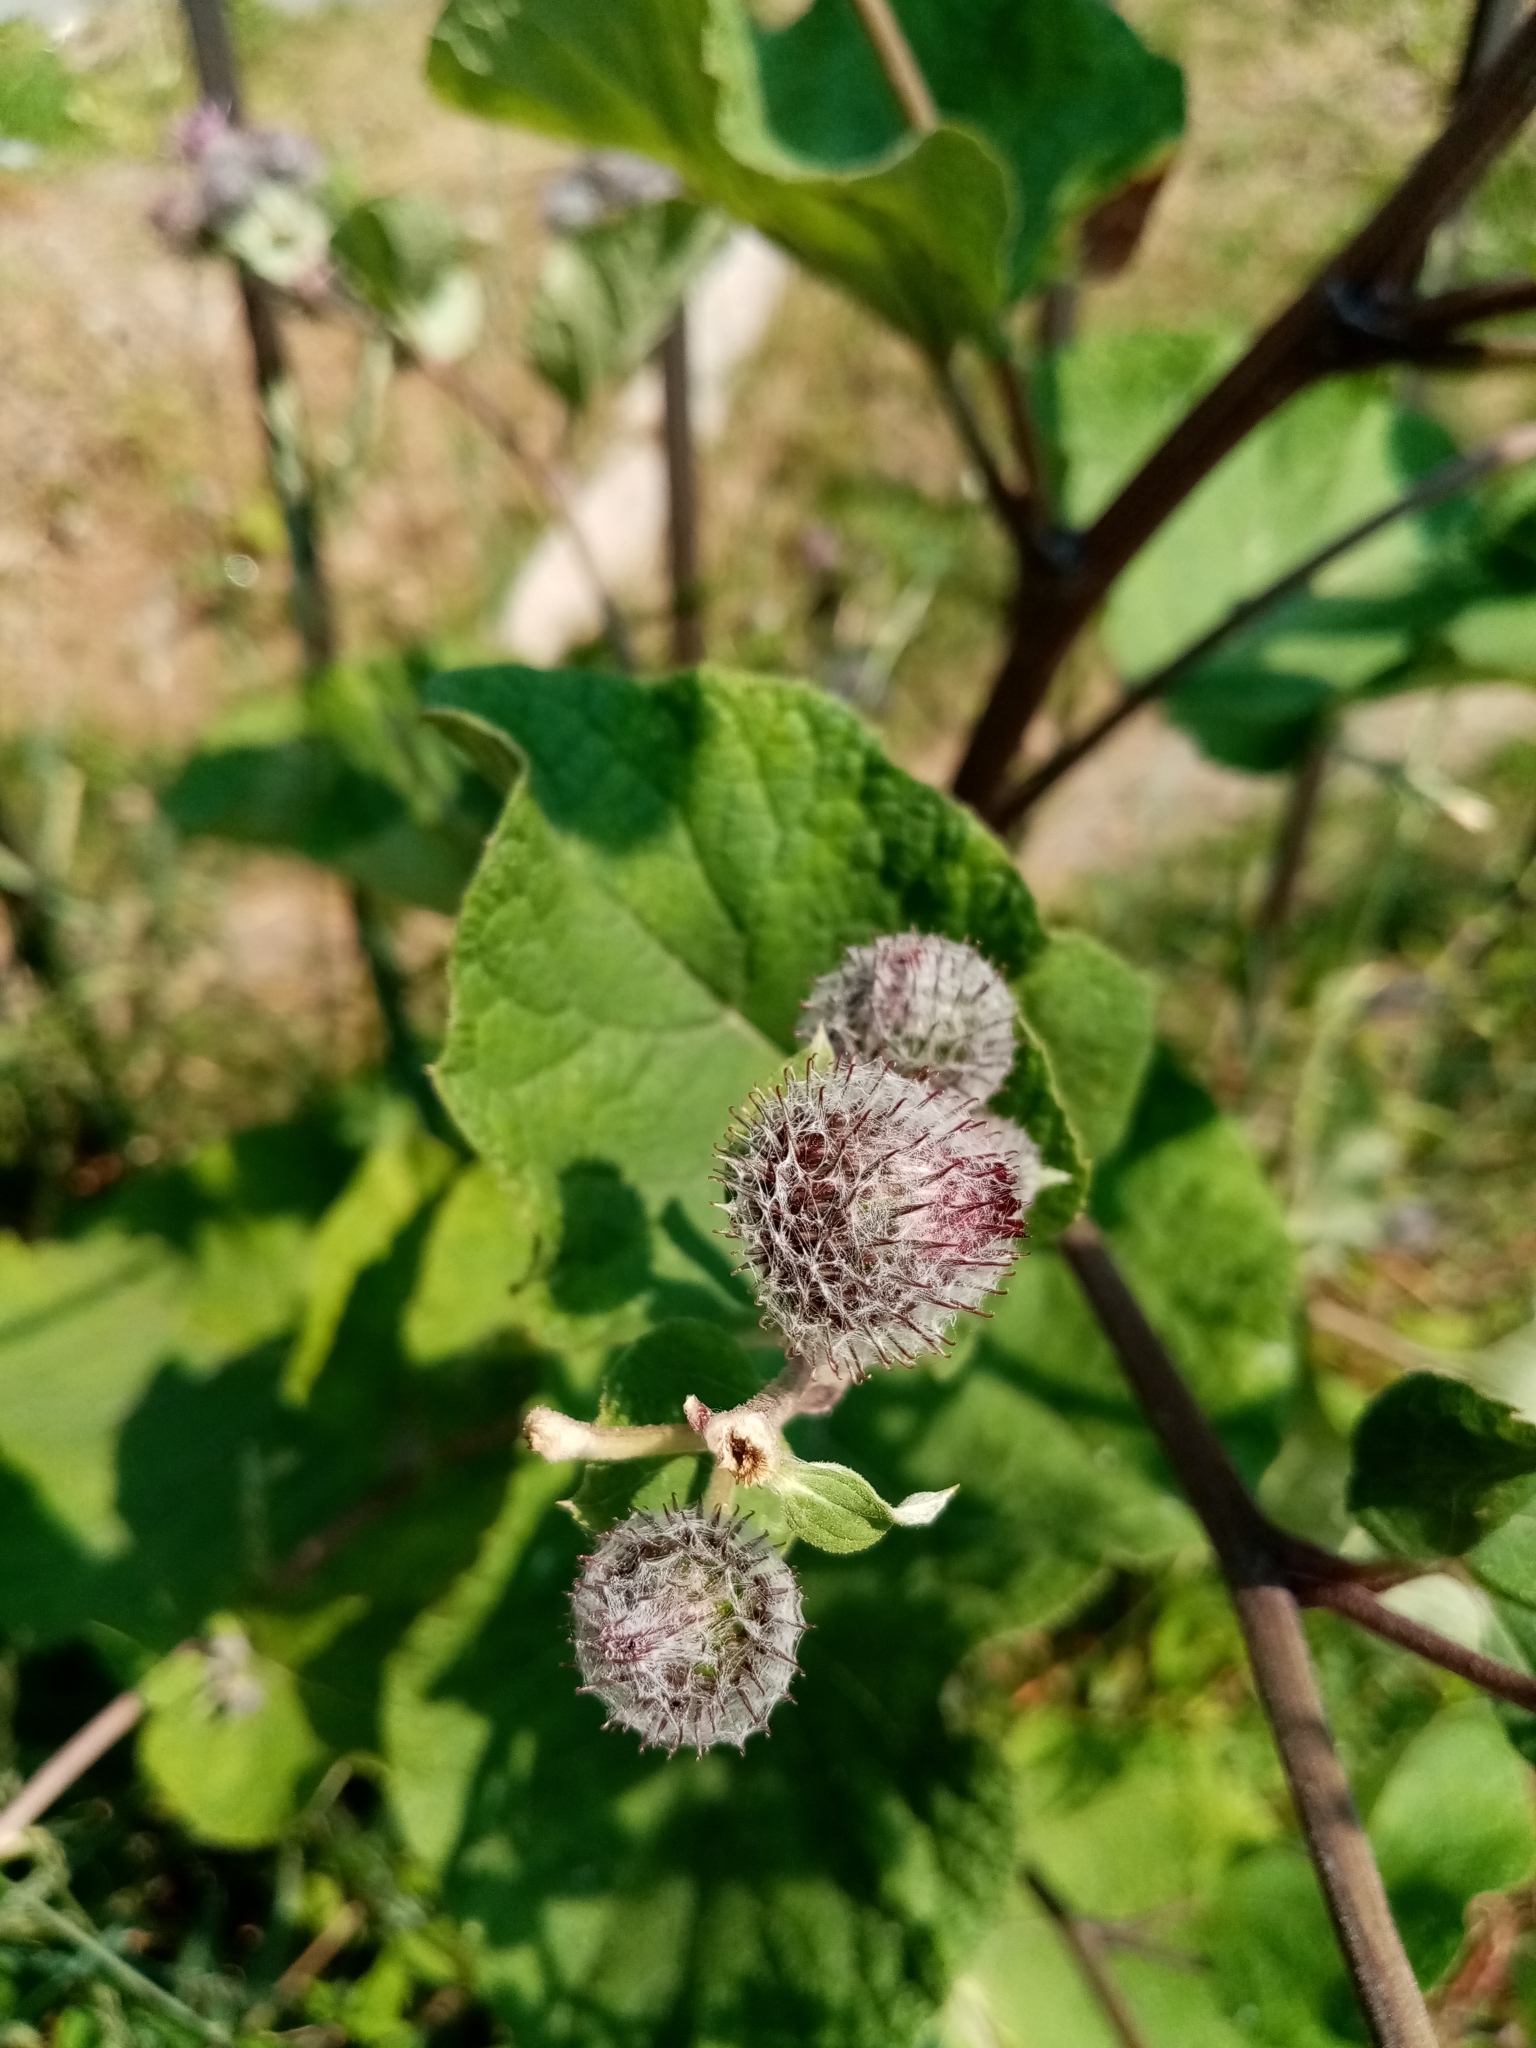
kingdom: Plantae
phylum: Tracheophyta
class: Magnoliopsida
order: Asterales
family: Asteraceae
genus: Arctium
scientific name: Arctium tomentosum
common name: Woolly burdock
